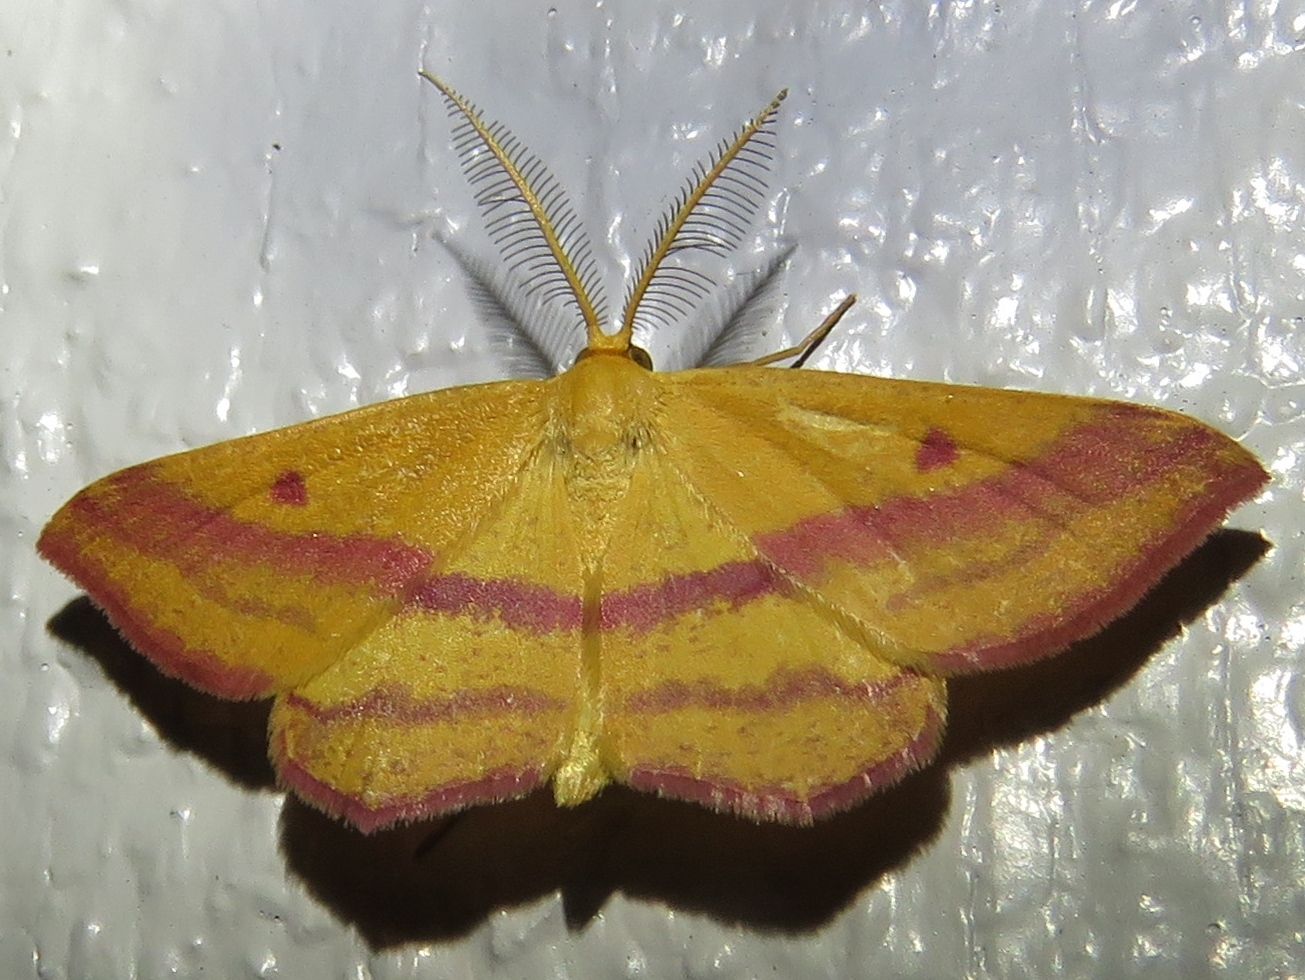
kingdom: Animalia
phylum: Arthropoda
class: Insecta
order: Lepidoptera
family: Geometridae
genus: Haematopis
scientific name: Haematopis grataria
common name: Chickweed geometer
